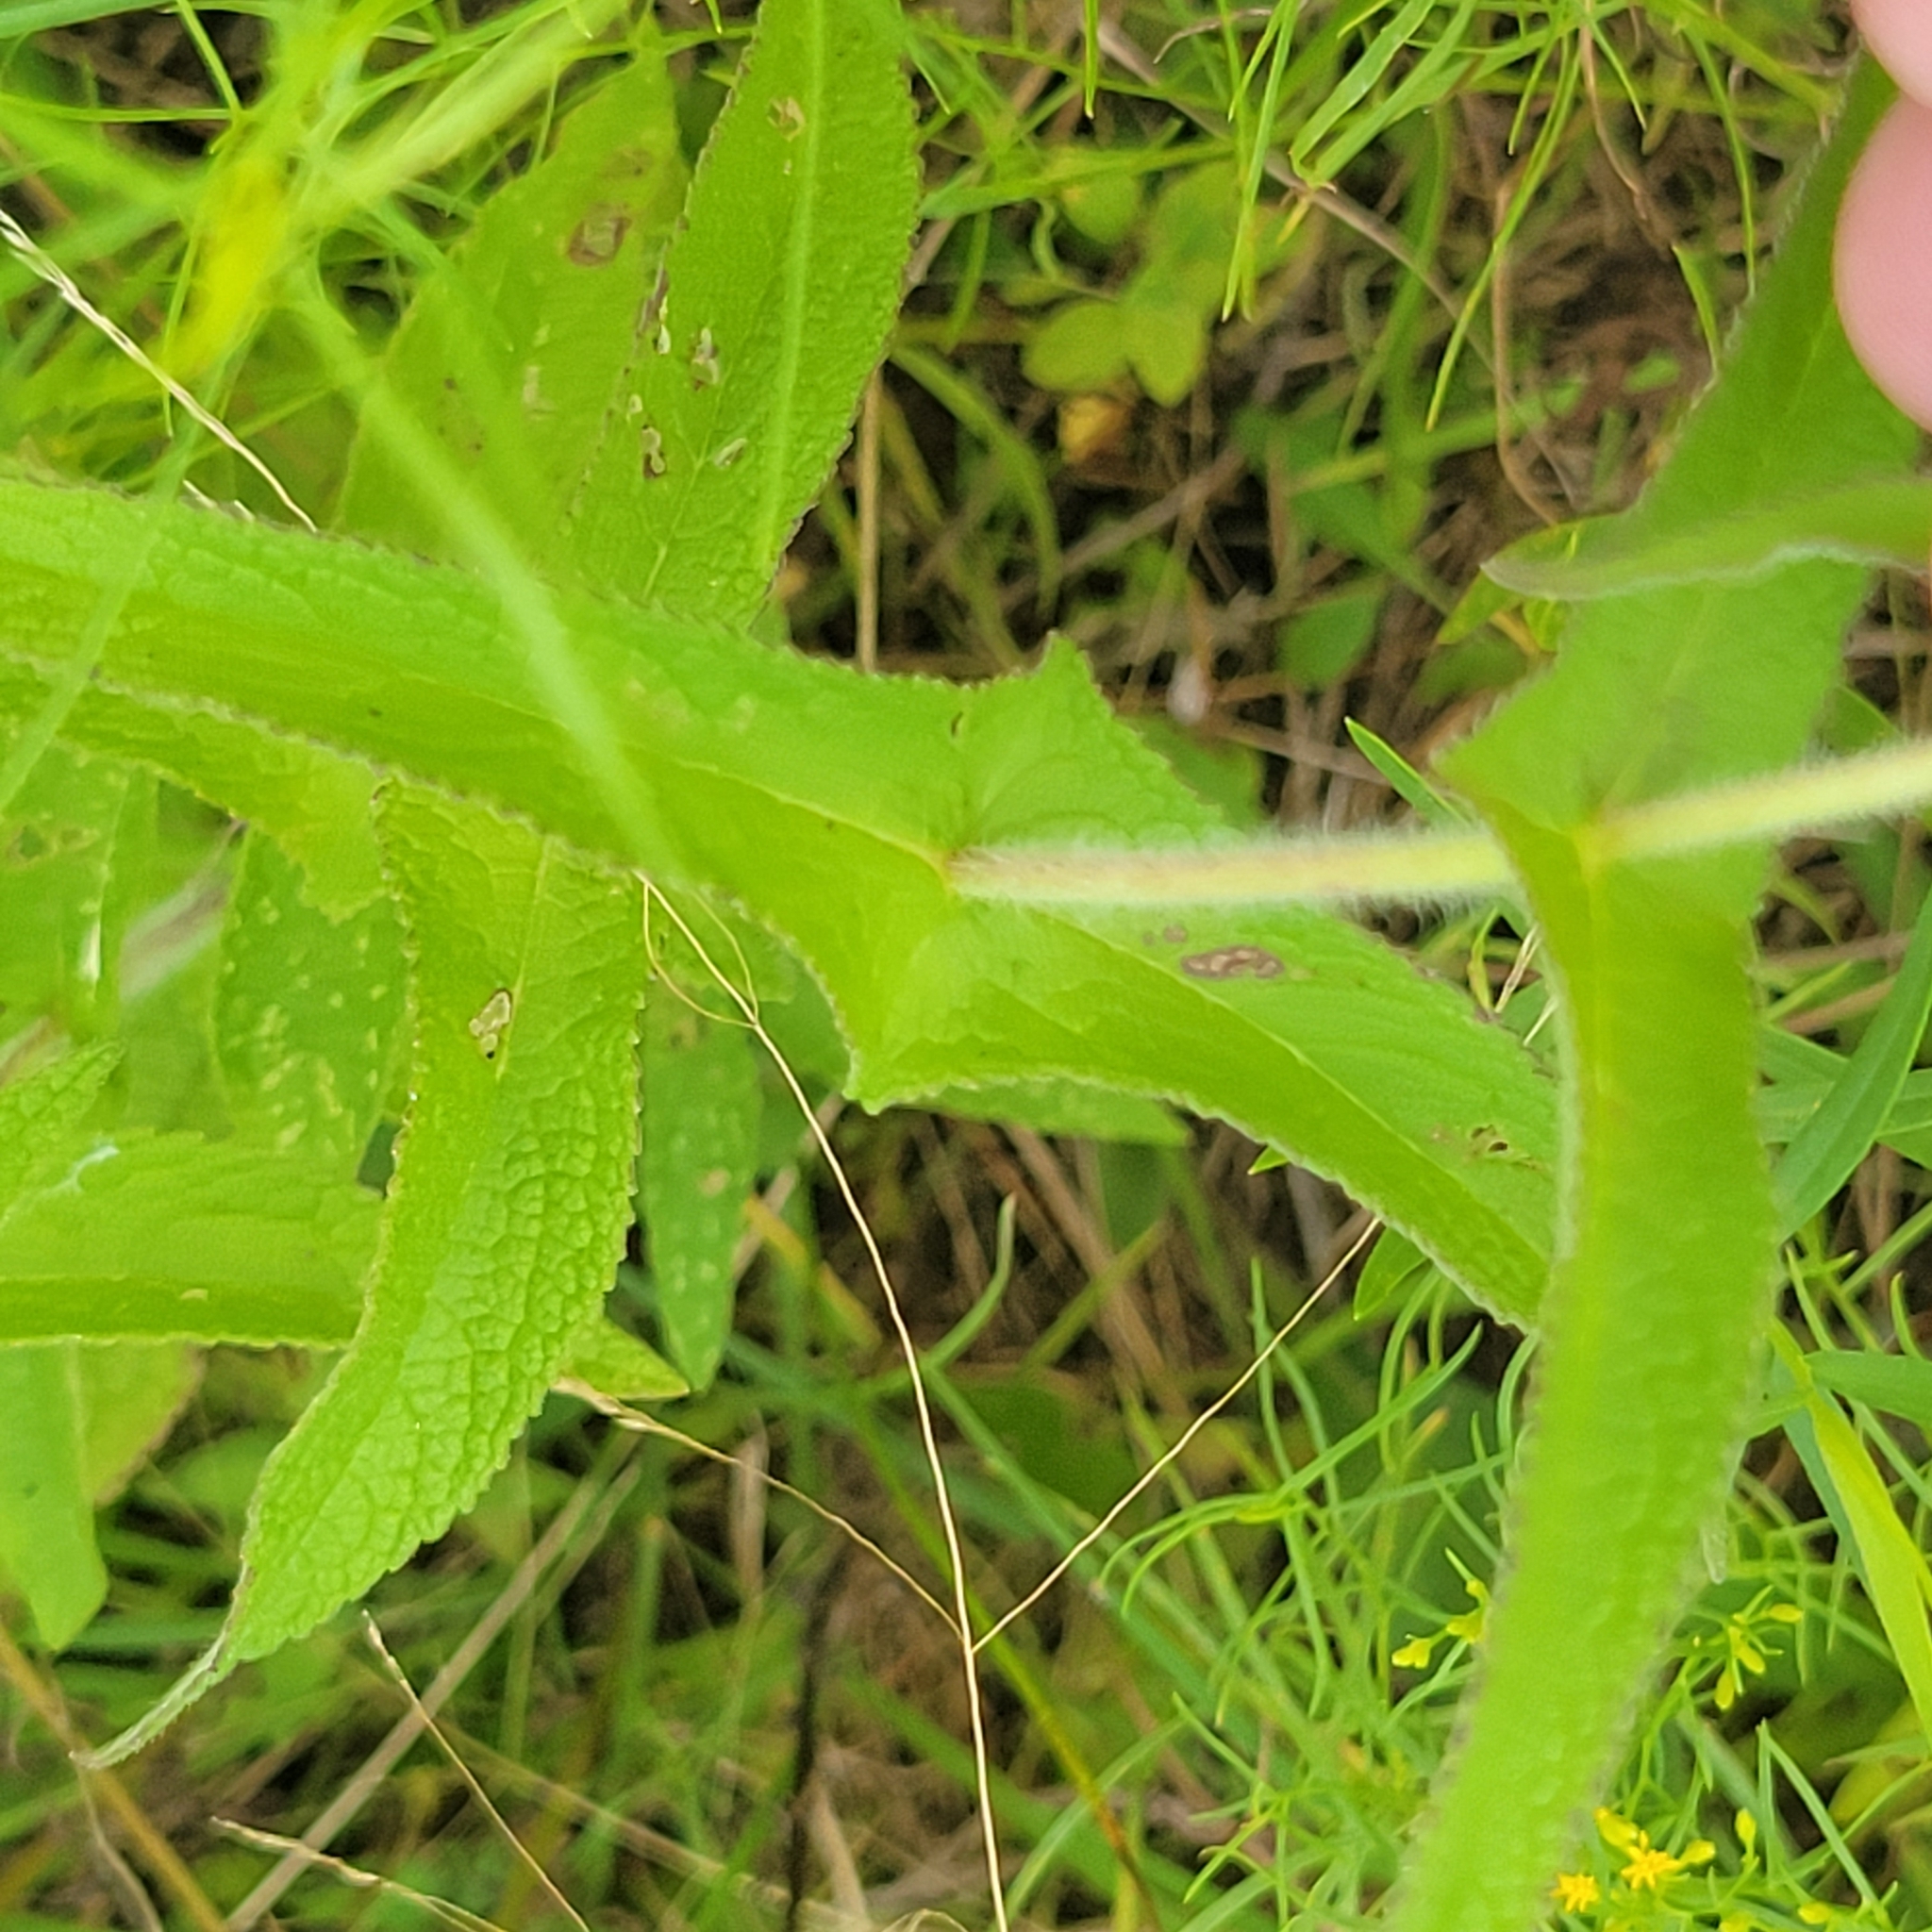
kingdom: Plantae
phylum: Tracheophyta
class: Magnoliopsida
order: Asterales
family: Asteraceae
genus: Eupatorium
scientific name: Eupatorium perfoliatum
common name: Boneset
